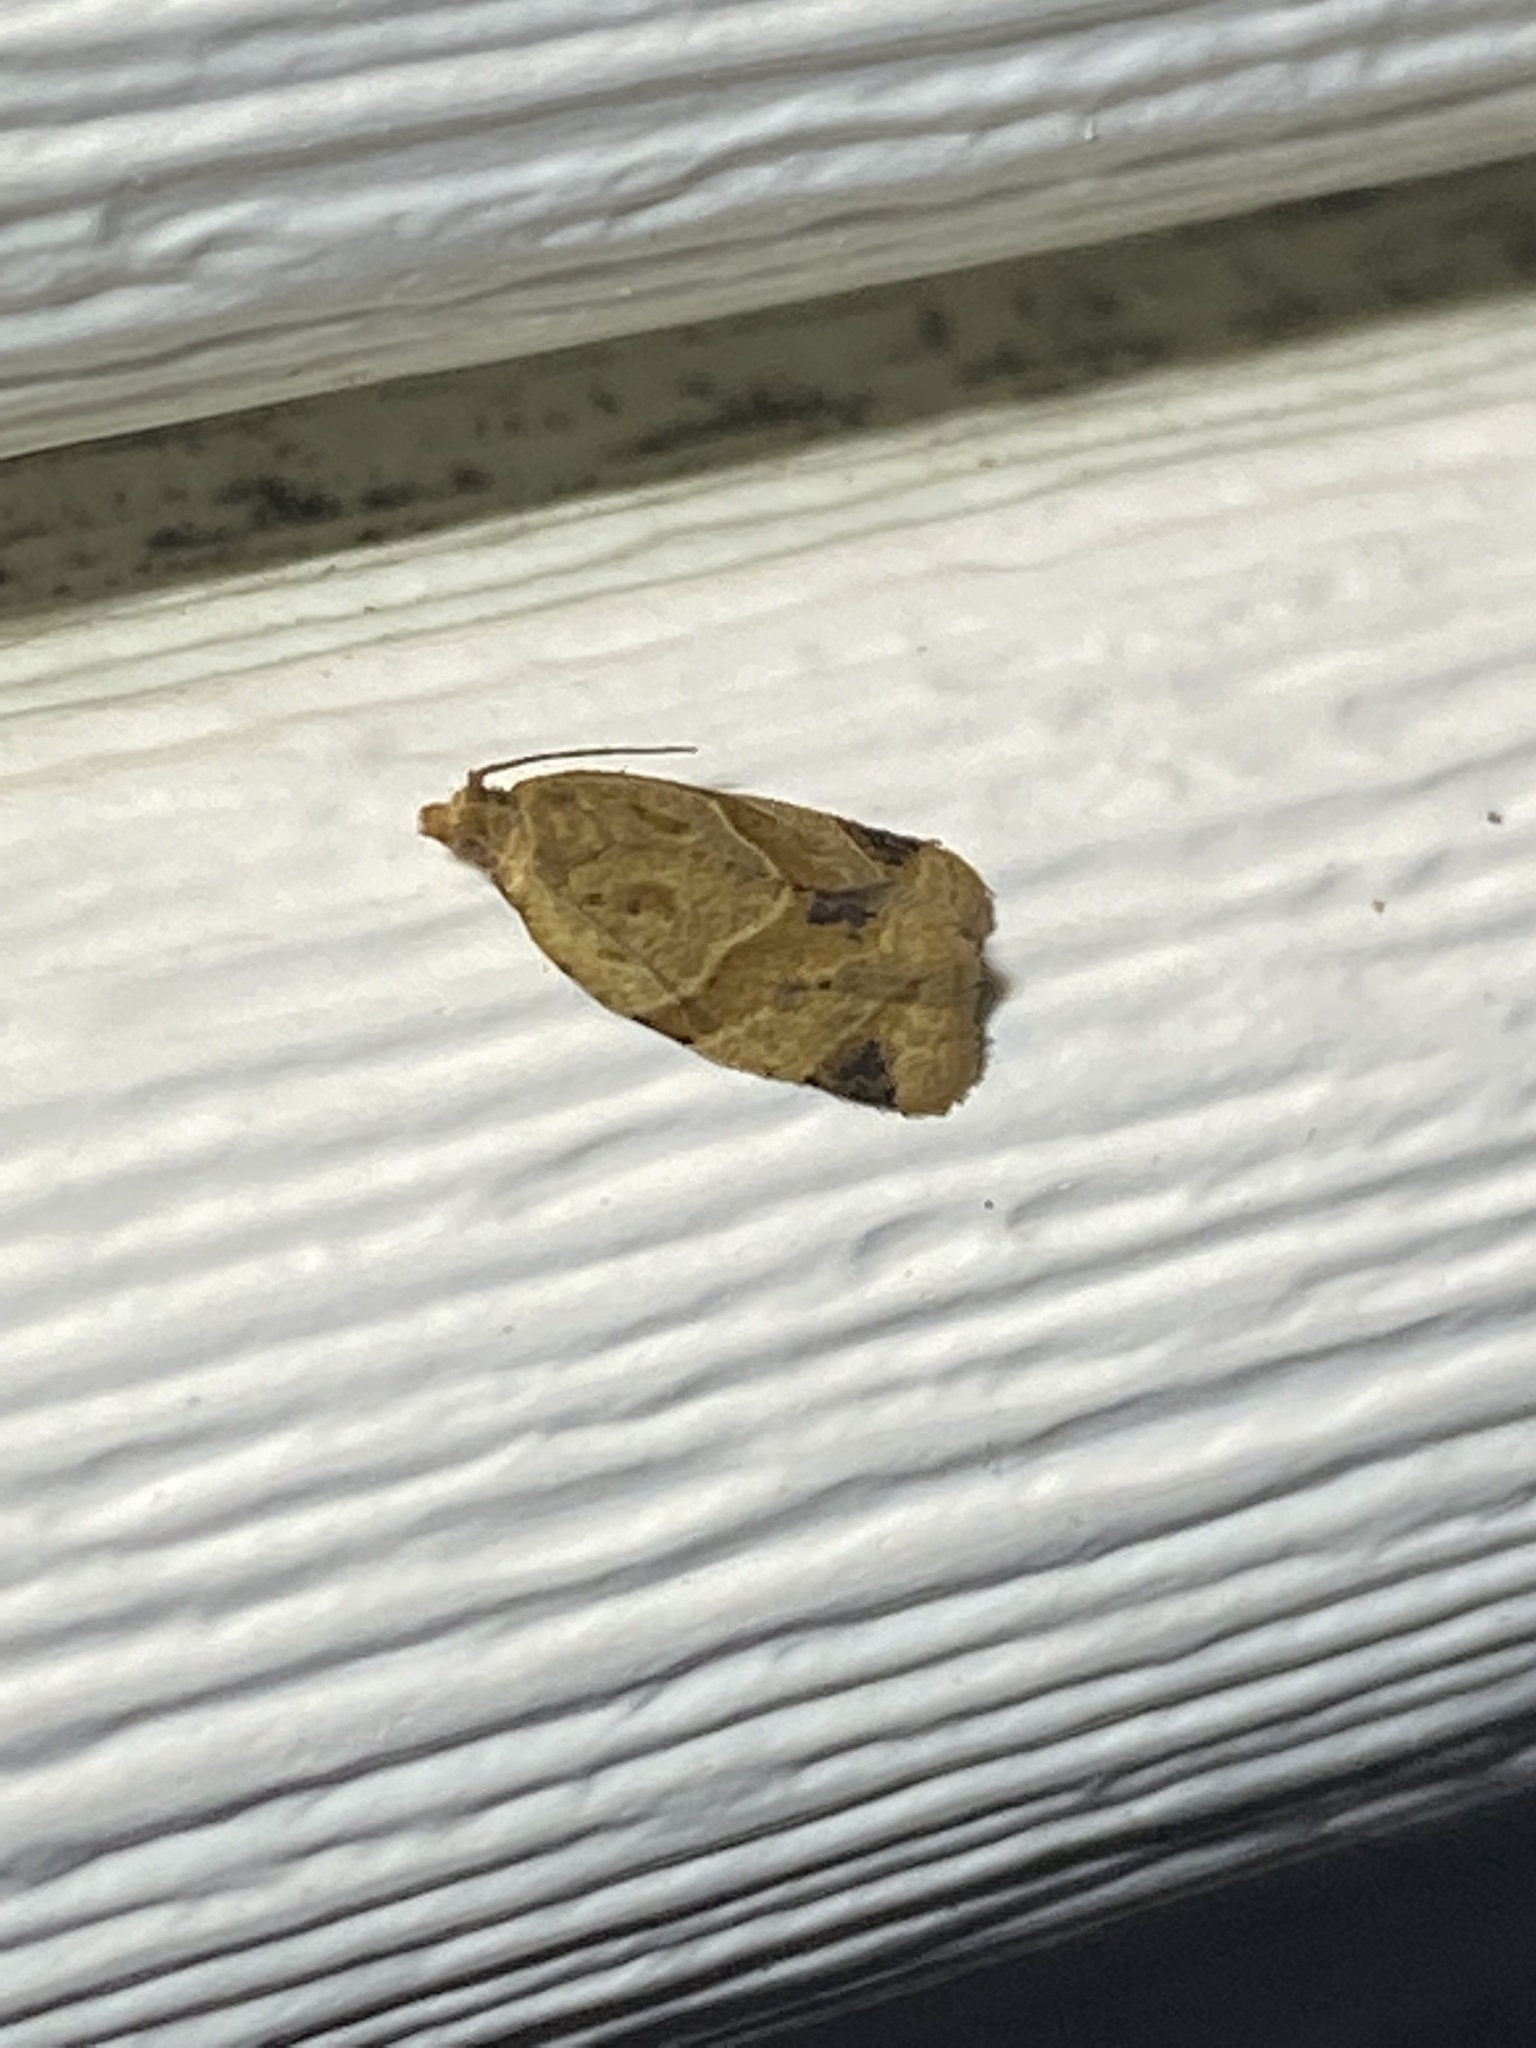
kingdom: Animalia
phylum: Arthropoda
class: Insecta
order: Lepidoptera
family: Tortricidae
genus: Clepsis
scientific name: Clepsis peritana
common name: Garden tortrix
